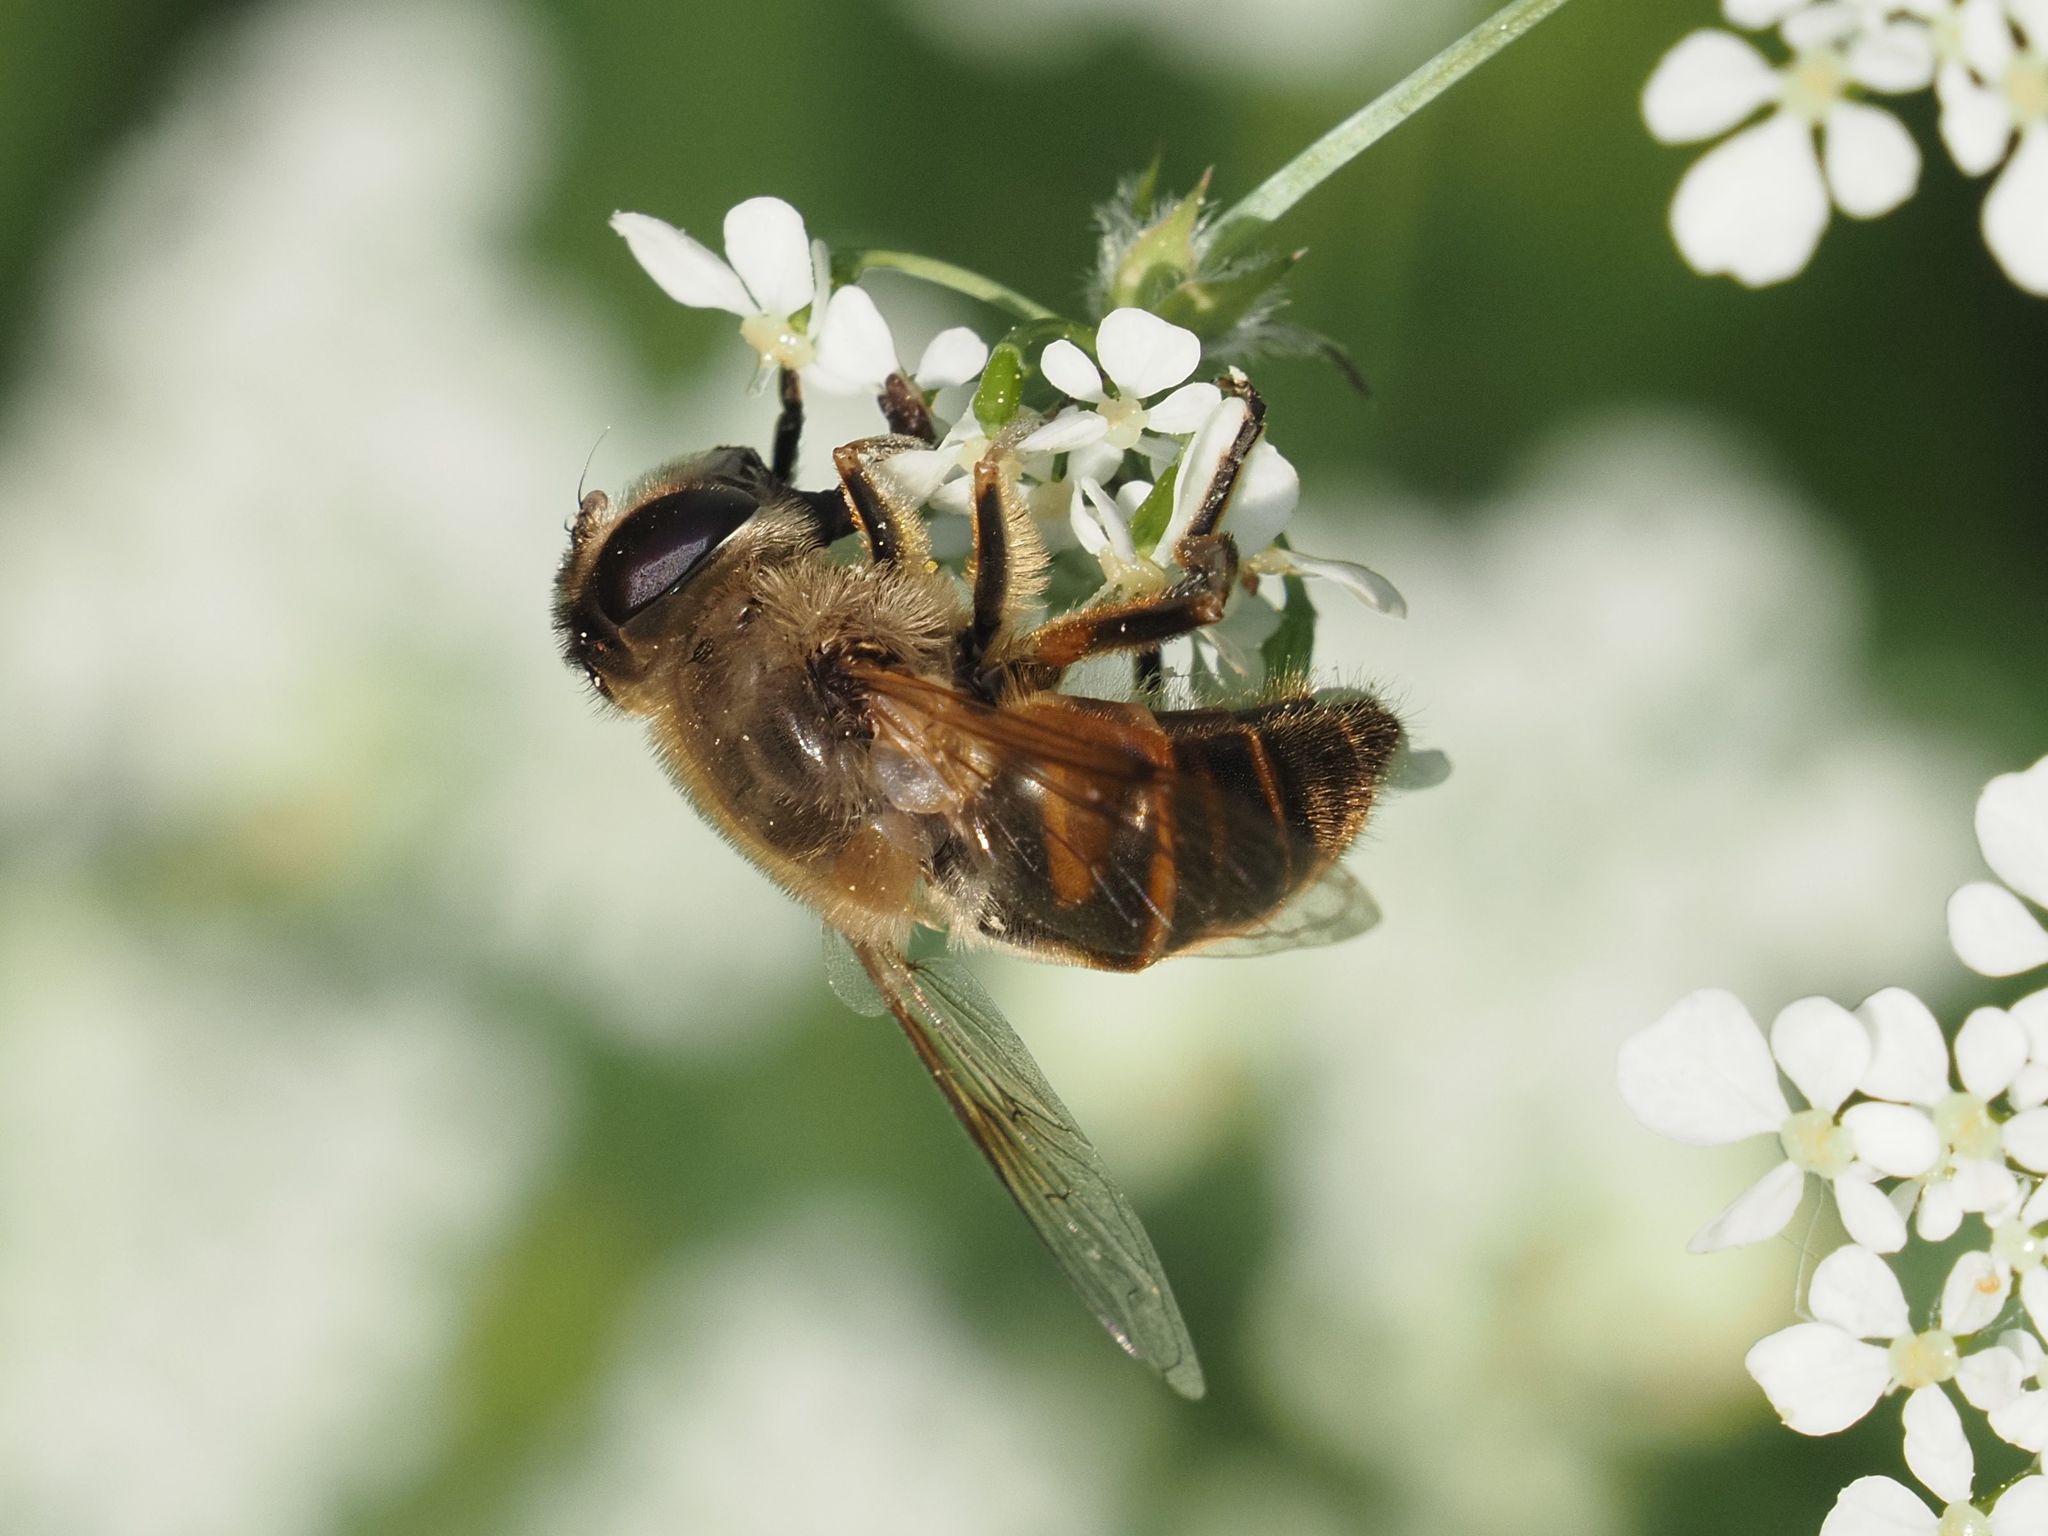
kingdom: Animalia
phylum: Arthropoda
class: Insecta
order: Diptera
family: Syrphidae
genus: Eristalis
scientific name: Eristalis tenax
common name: Drone fly
